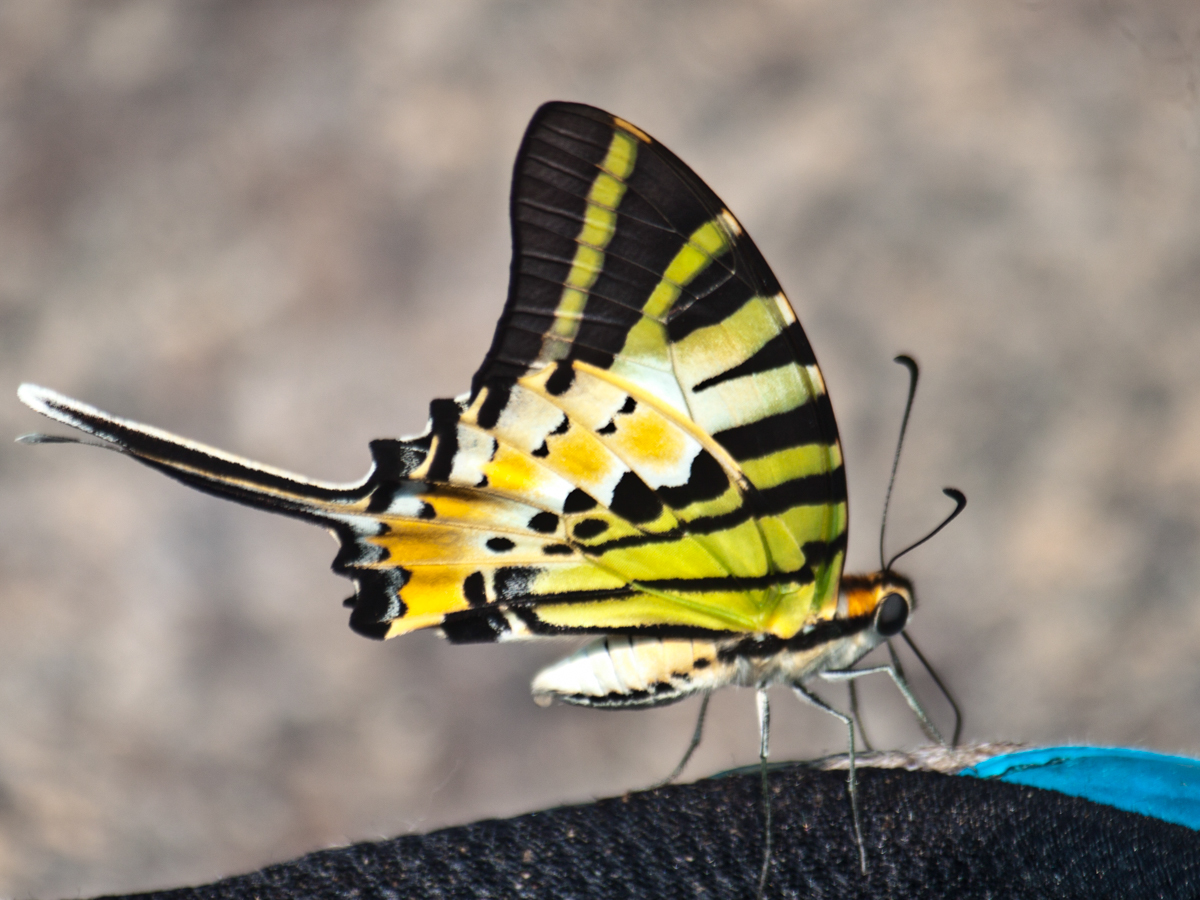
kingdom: Animalia
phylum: Arthropoda
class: Insecta
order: Lepidoptera
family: Papilionidae
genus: Graphium
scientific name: Graphium antiphates
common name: Fivebar swordtail
